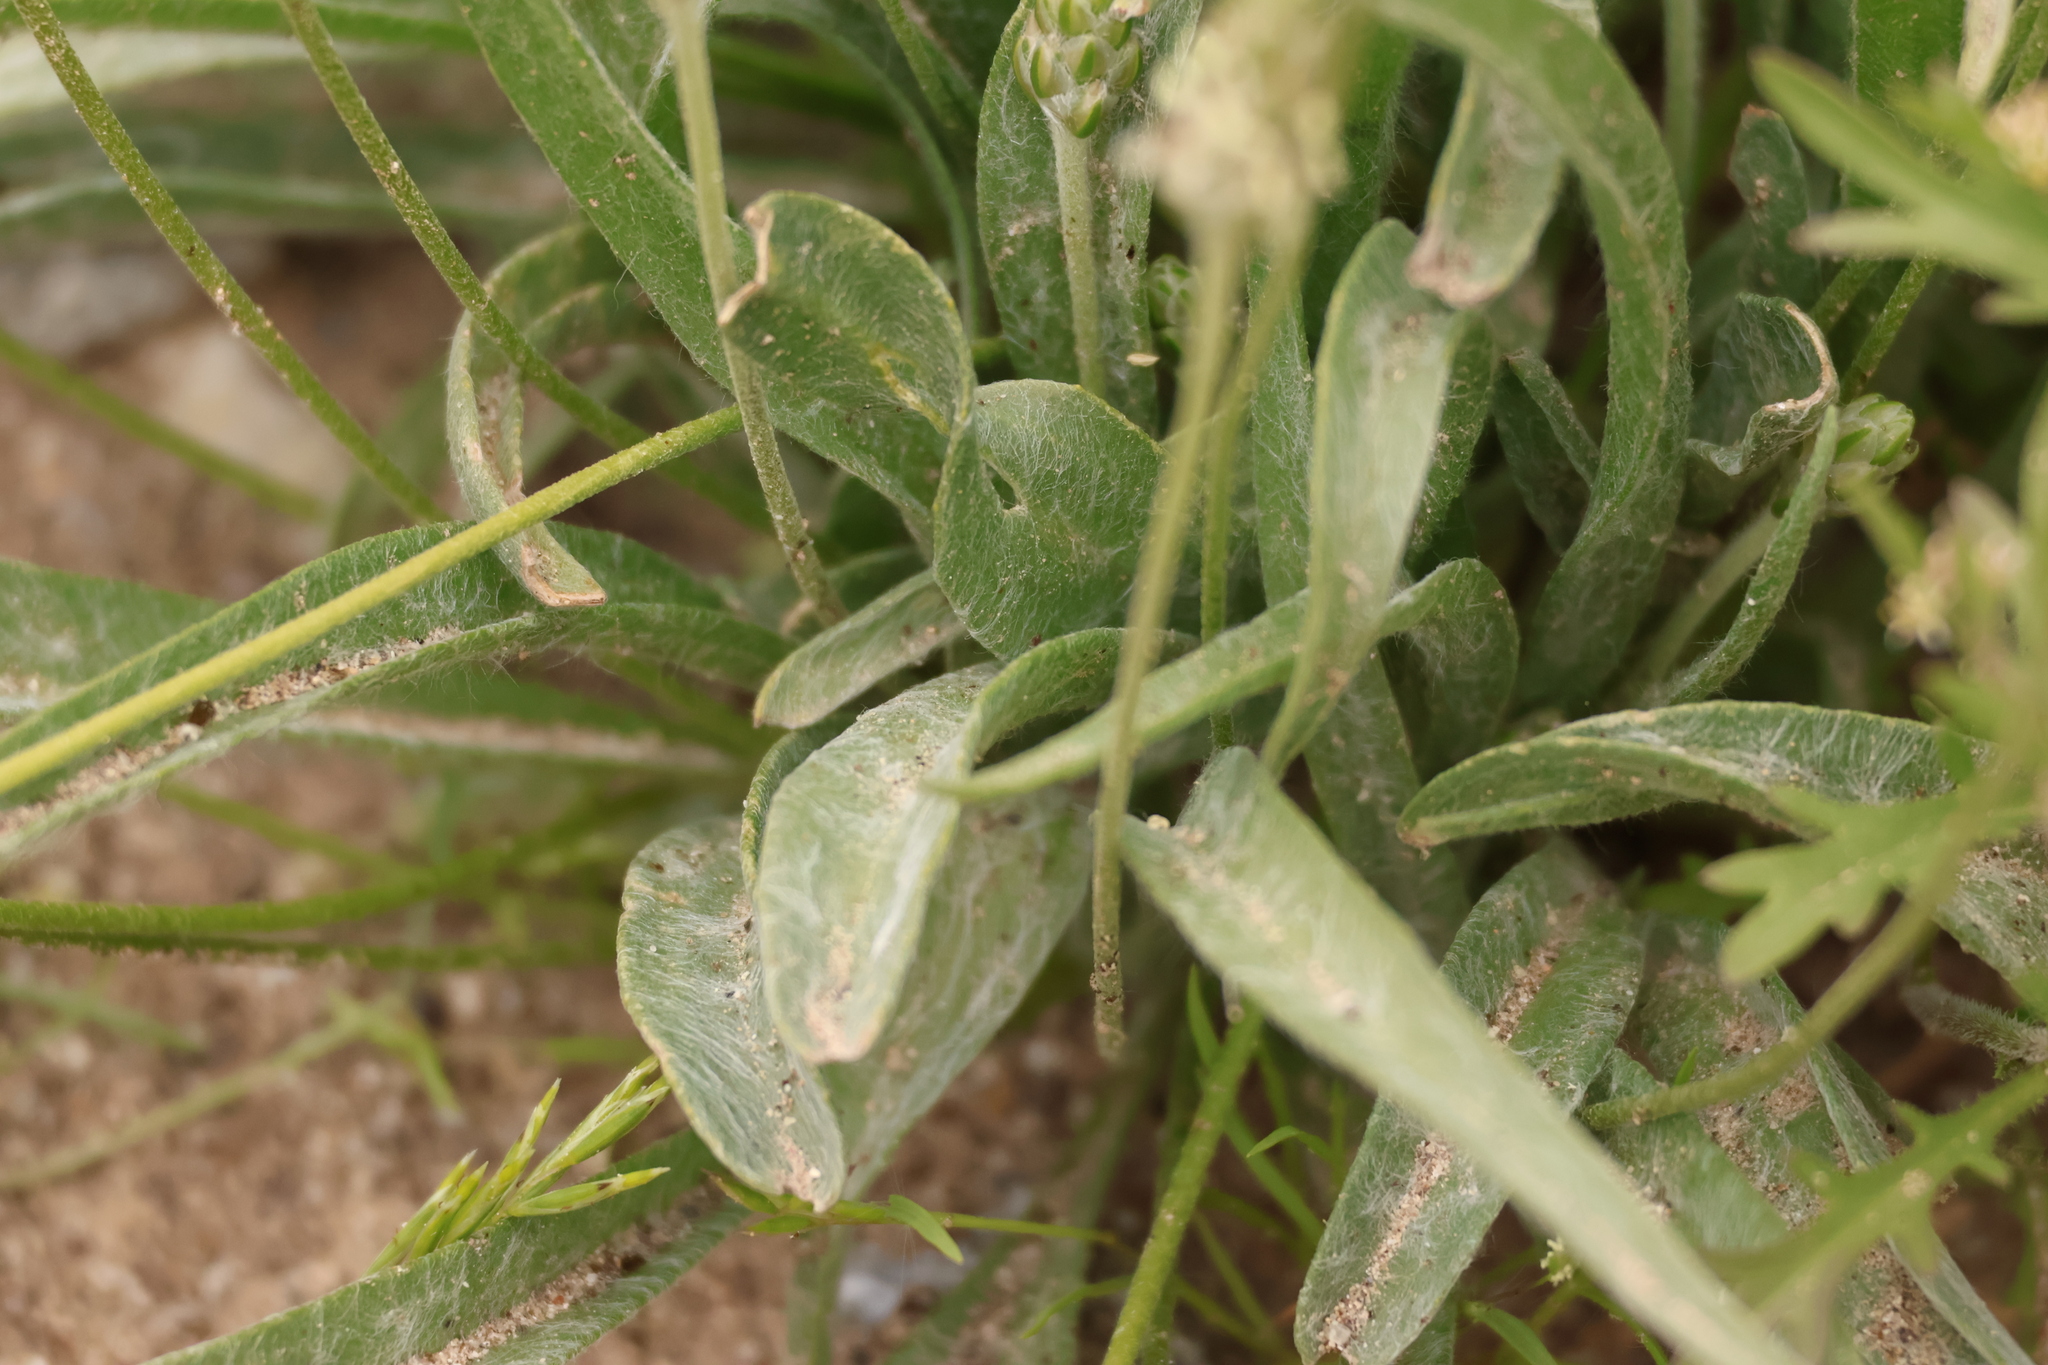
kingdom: Plantae
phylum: Tracheophyta
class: Magnoliopsida
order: Lamiales
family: Plantaginaceae
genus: Plantago
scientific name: Plantago ovata
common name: Blond plantain
